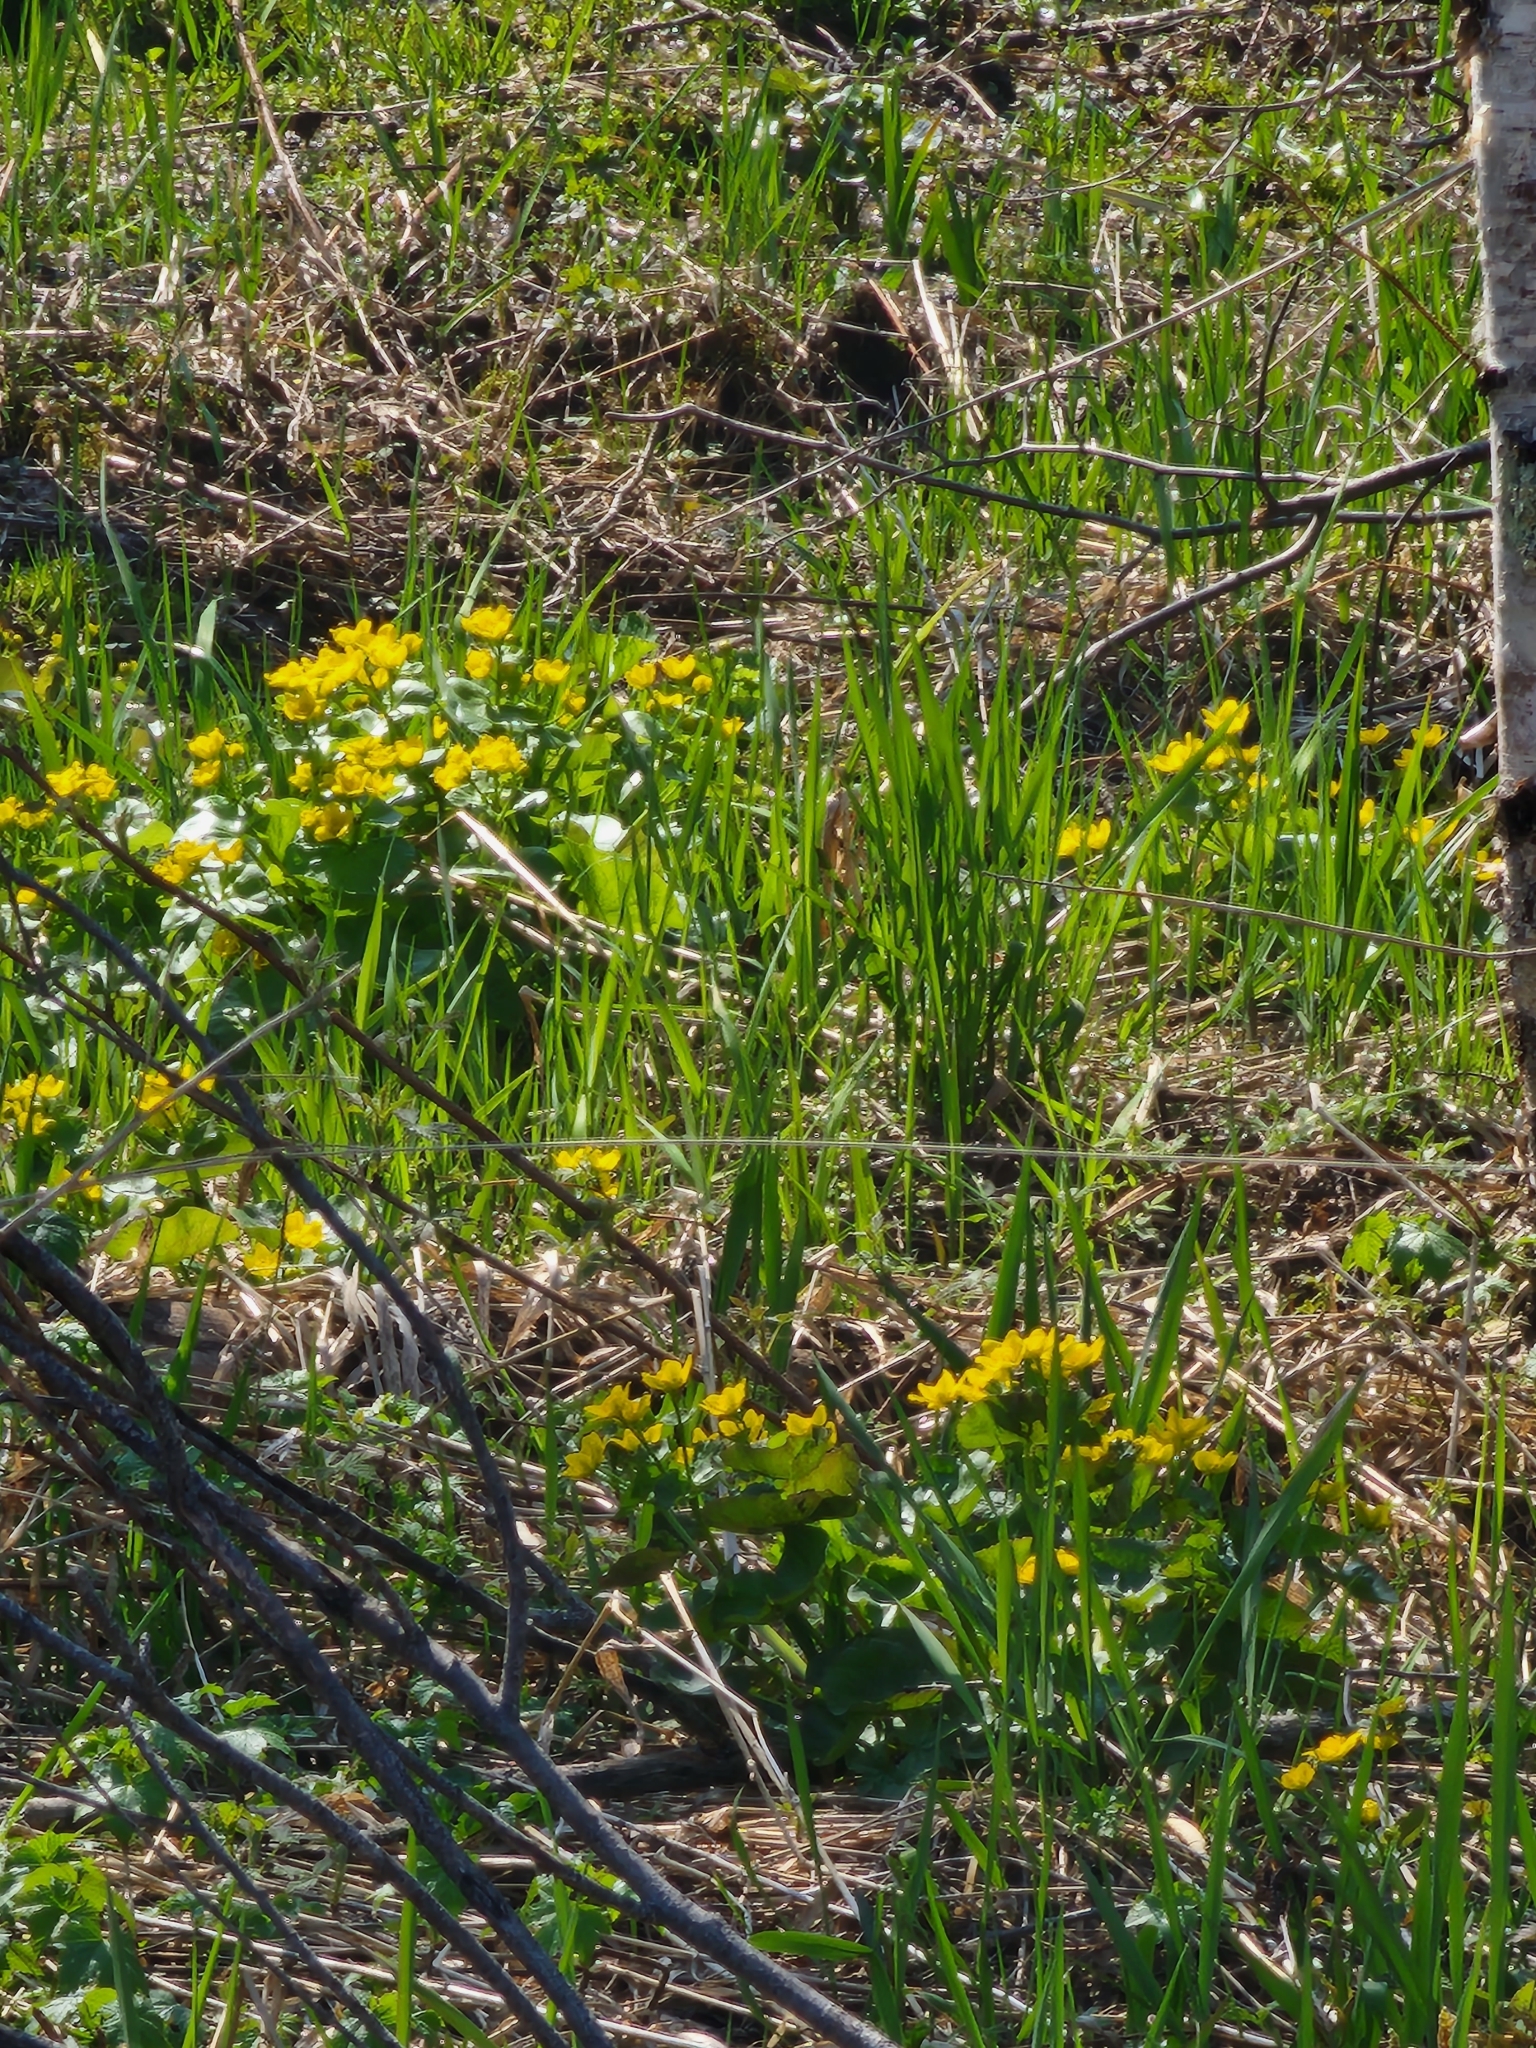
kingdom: Plantae
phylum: Tracheophyta
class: Magnoliopsida
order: Ranunculales
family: Ranunculaceae
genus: Caltha
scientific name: Caltha palustris
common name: Marsh marigold
